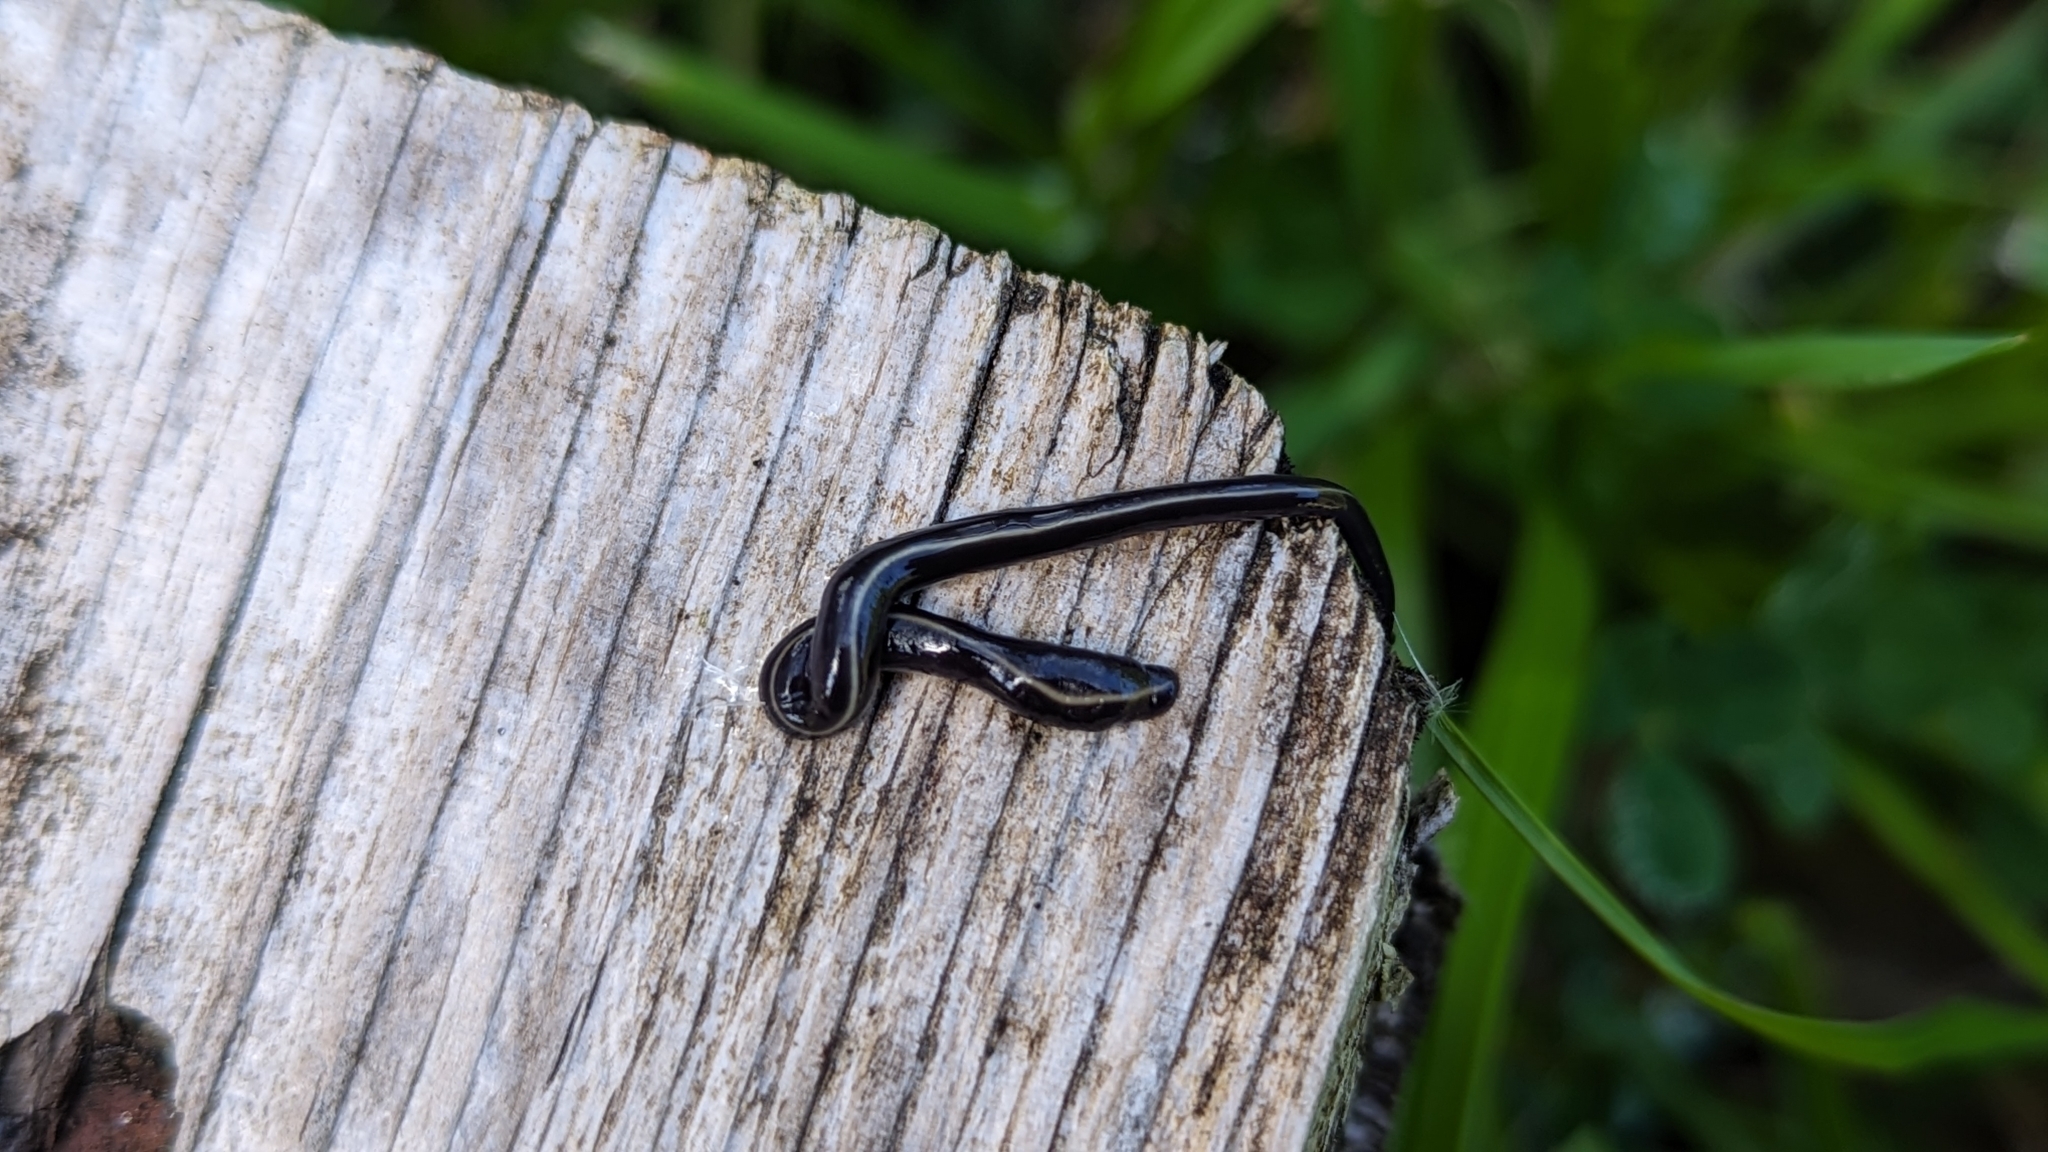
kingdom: Animalia
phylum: Platyhelminthes
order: Tricladida
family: Geoplanidae
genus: Caenoplana
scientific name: Caenoplana coerulea
